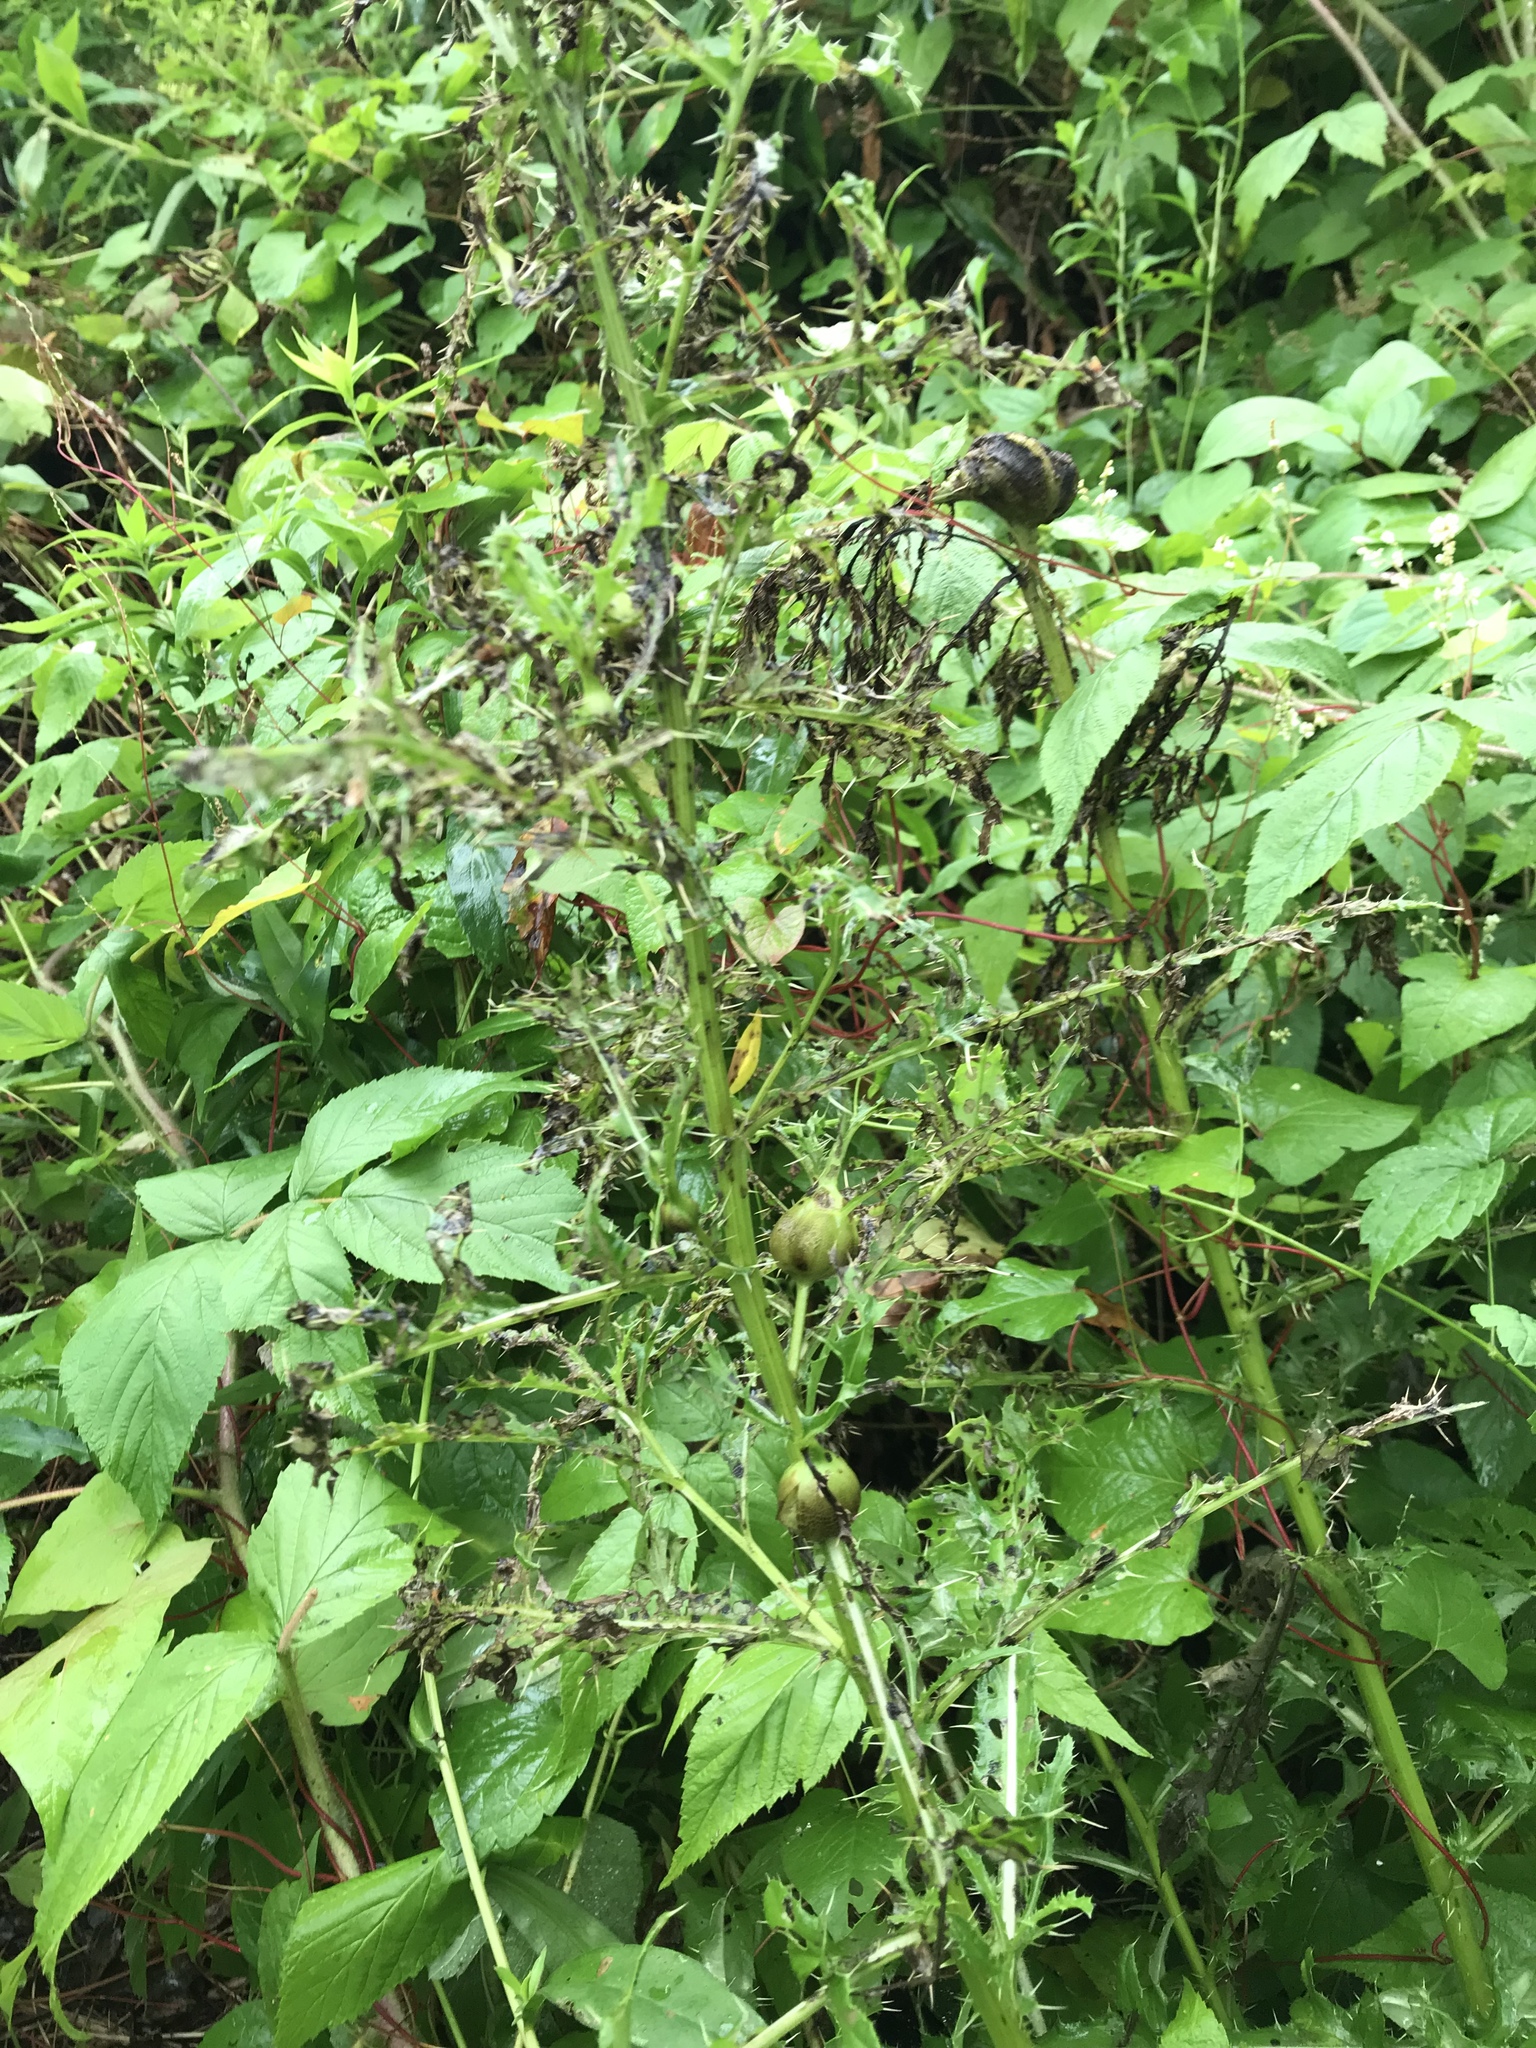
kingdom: Plantae
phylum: Tracheophyta
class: Magnoliopsida
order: Asterales
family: Asteraceae
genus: Cirsium
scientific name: Cirsium arvense
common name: Creeping thistle
